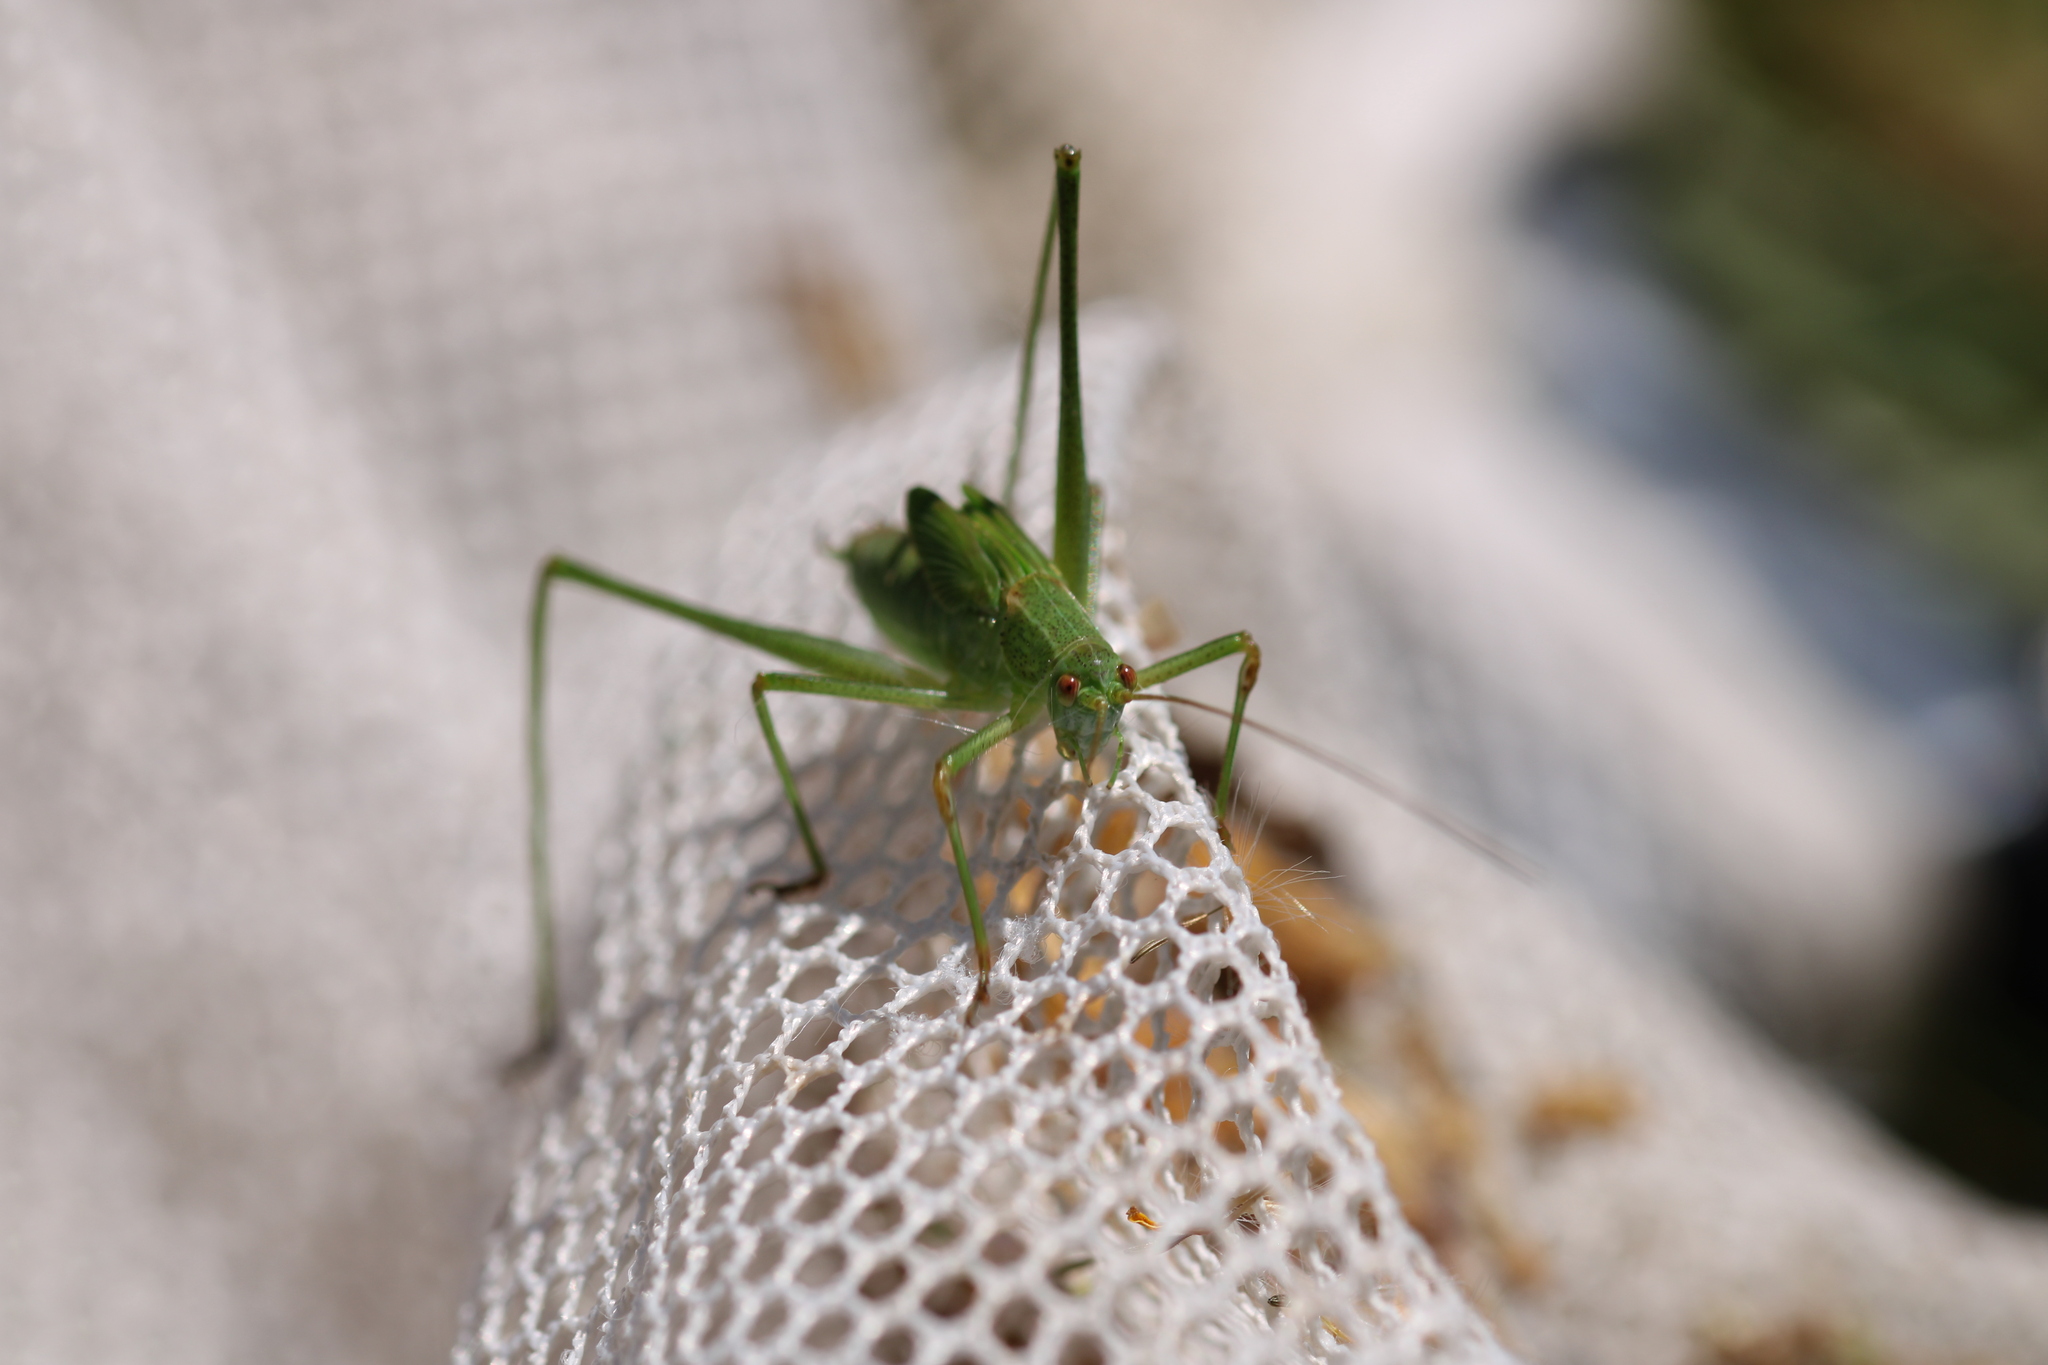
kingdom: Animalia
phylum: Arthropoda
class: Insecta
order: Orthoptera
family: Tettigoniidae
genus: Phaneroptera
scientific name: Phaneroptera falcata
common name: Sickle-bearing bush-cricket
